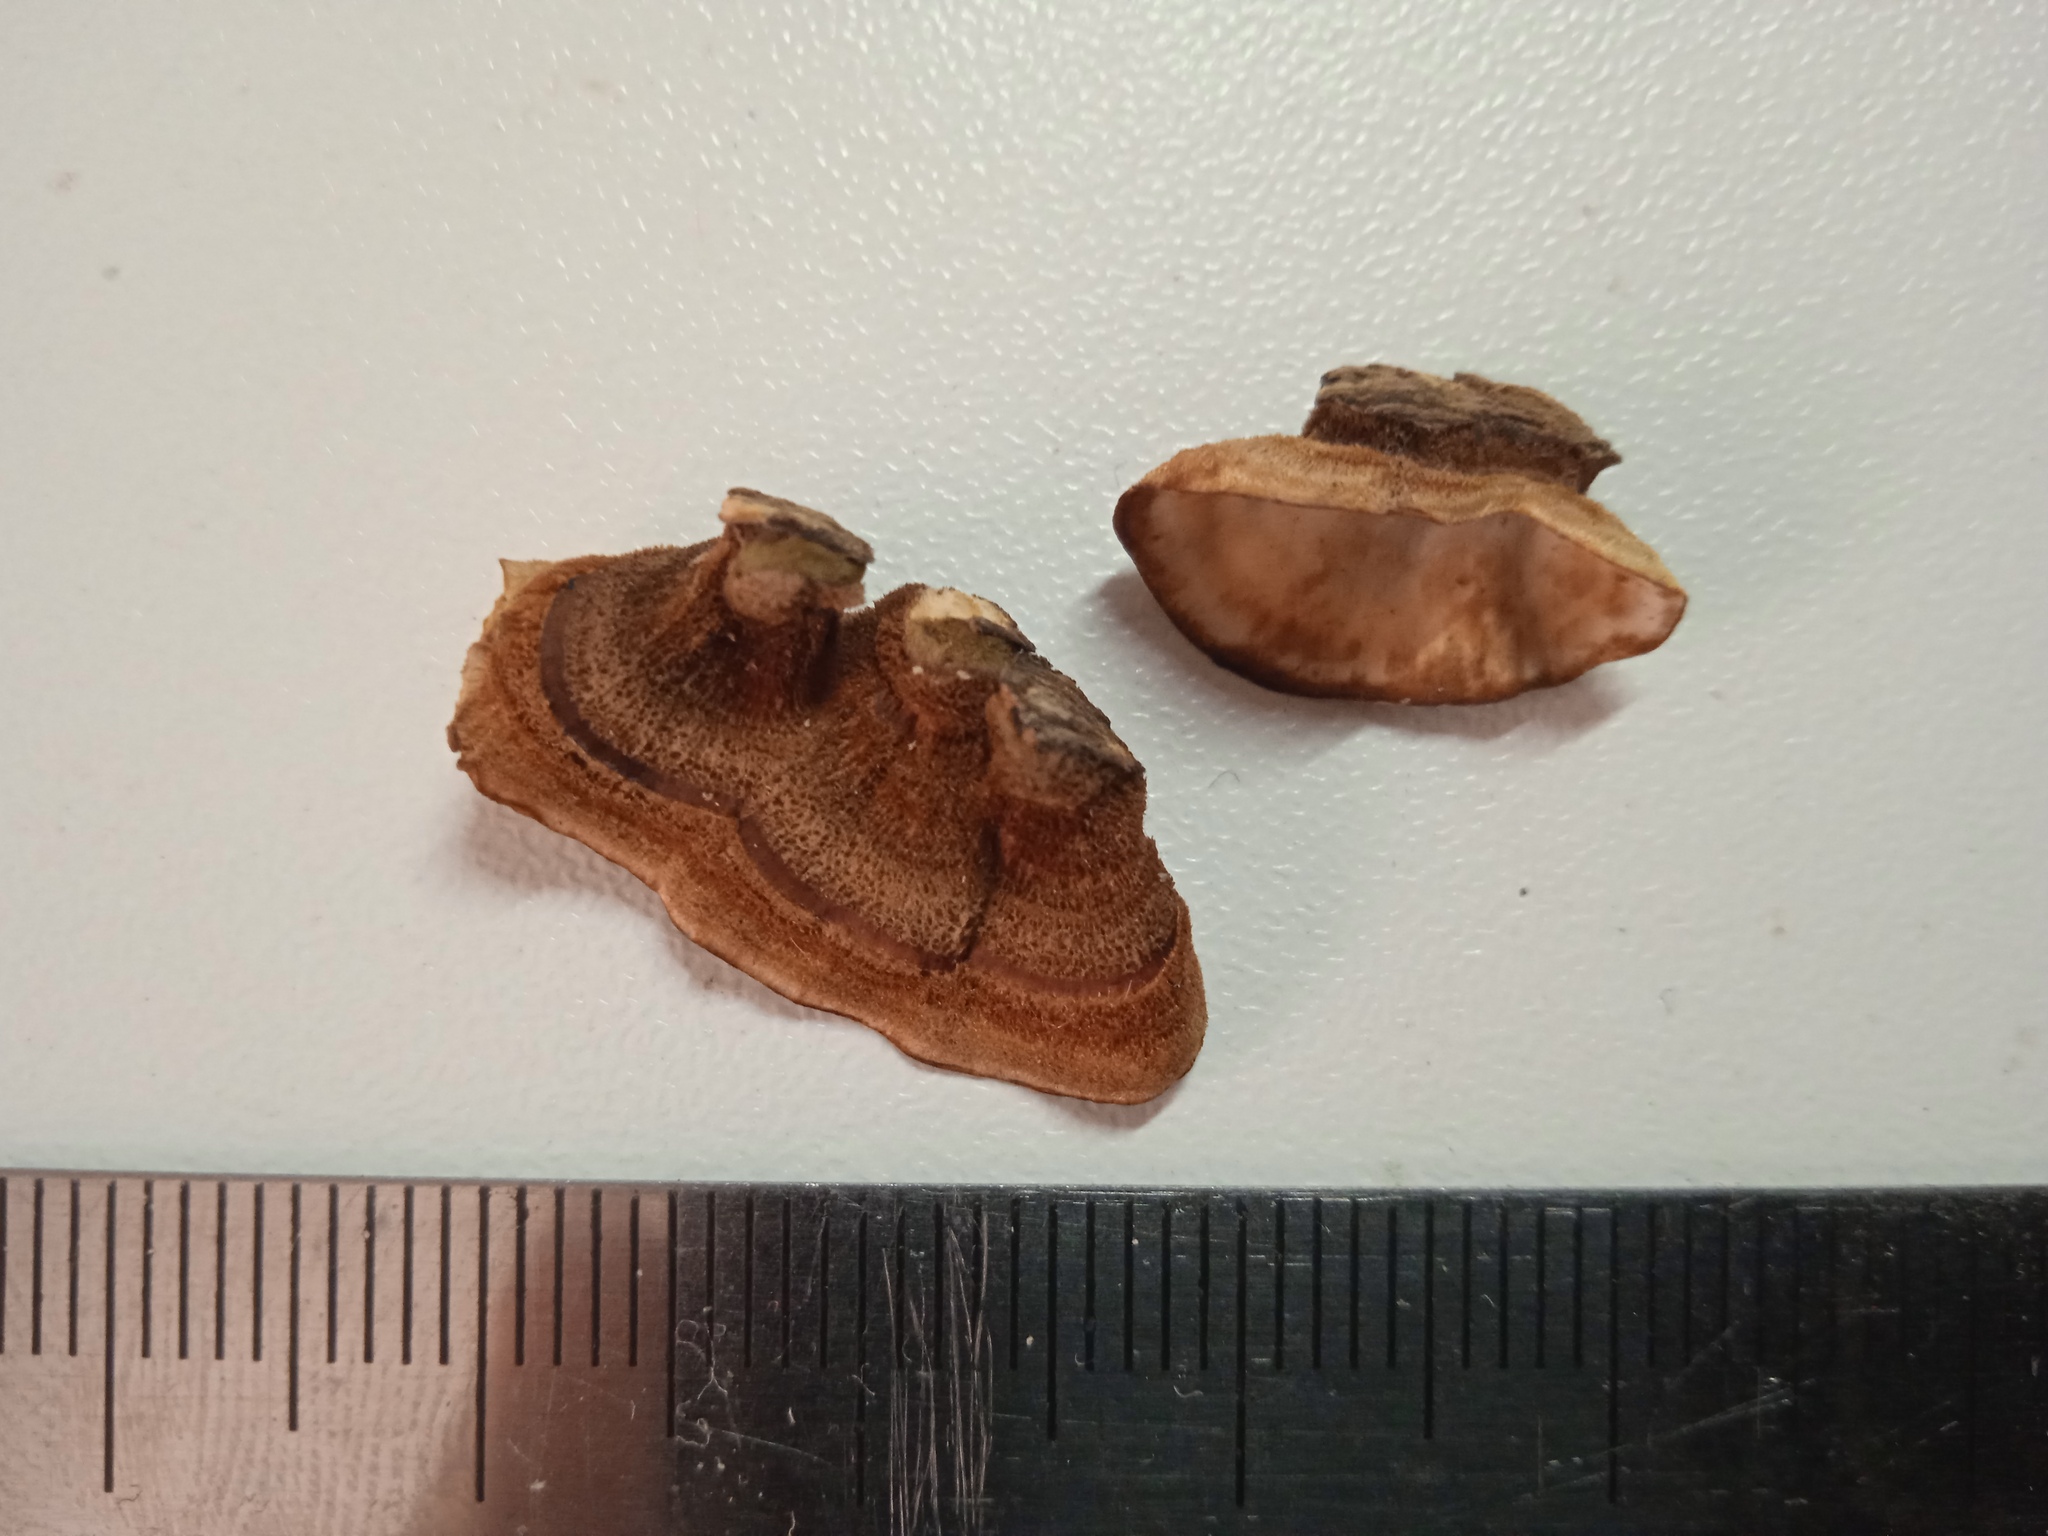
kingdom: Fungi
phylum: Basidiomycota
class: Agaricomycetes
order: Russulales
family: Stereaceae
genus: Stereum
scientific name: Stereum subtomentosum
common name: Yellowing curtain crust
